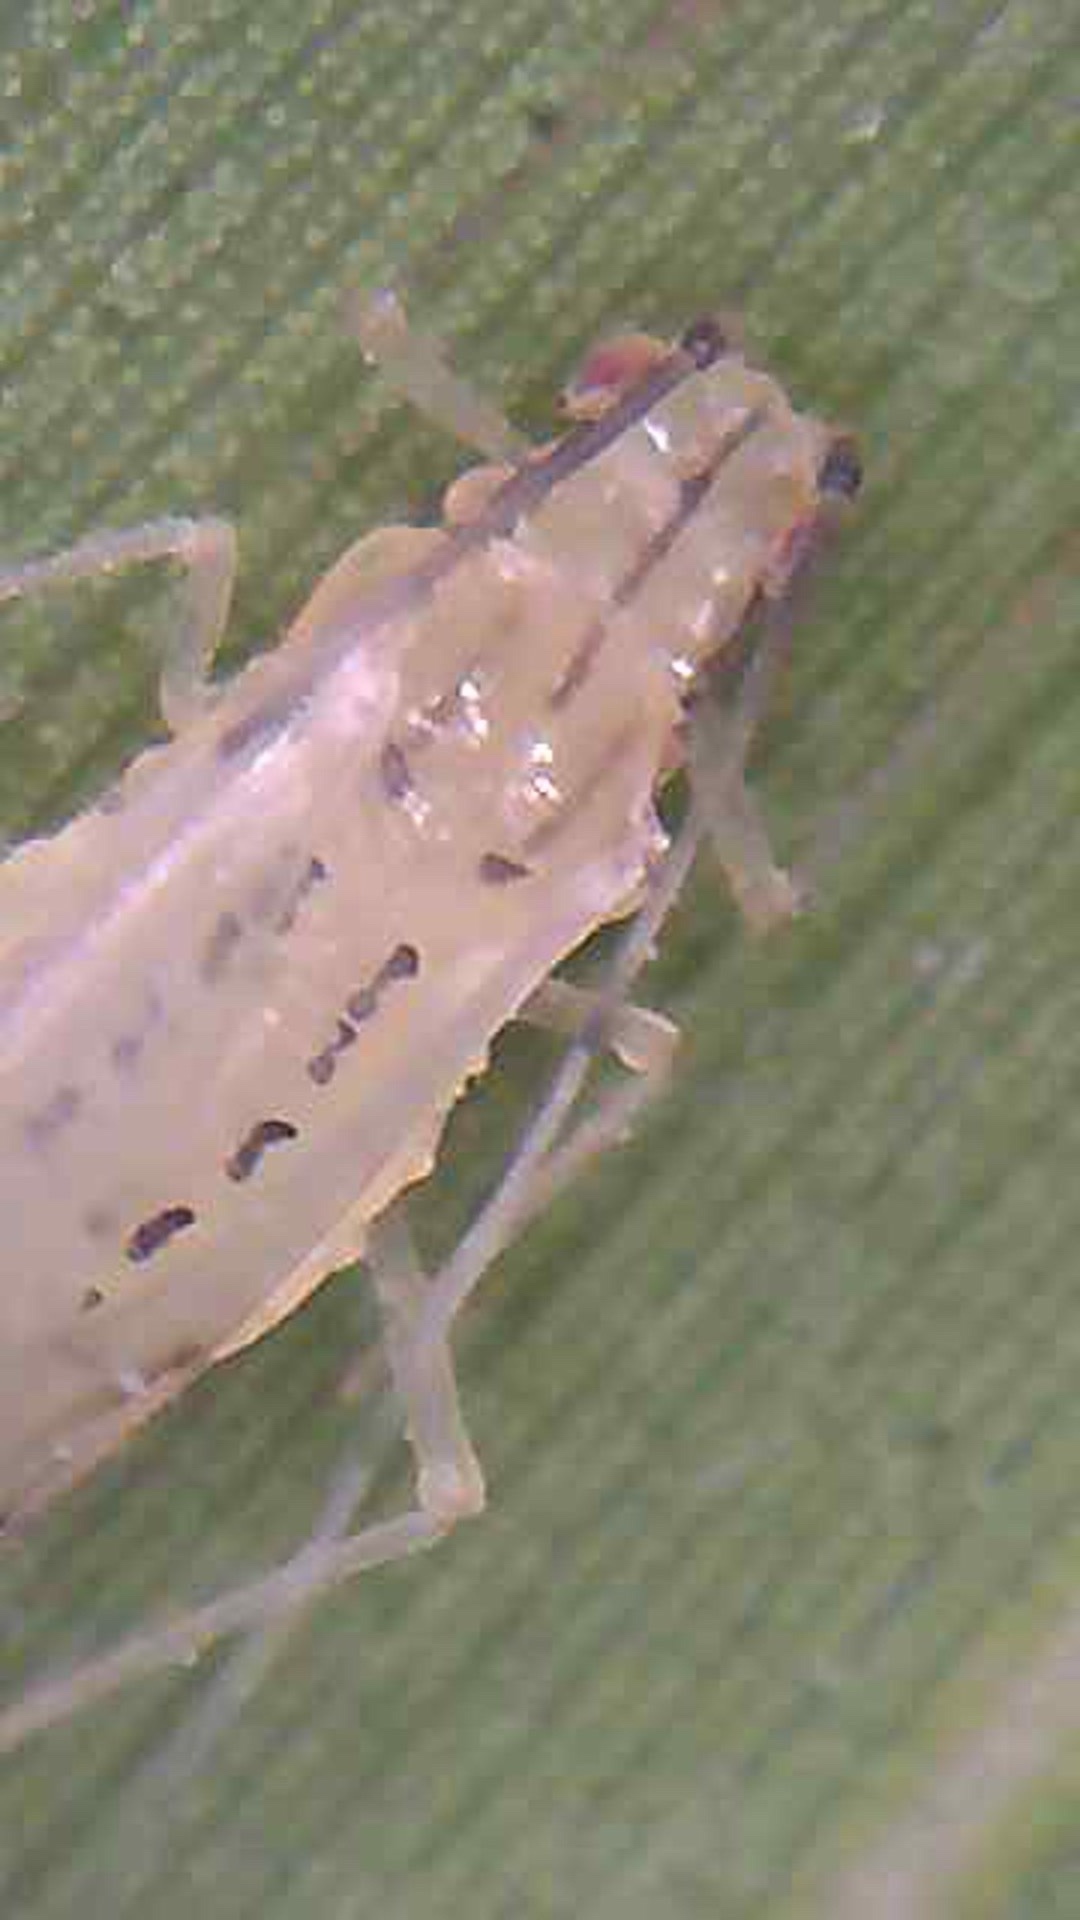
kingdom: Animalia
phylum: Arthropoda
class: Insecta
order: Hemiptera
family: Aphididae
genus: Takecallis
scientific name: Takecallis arundinariae
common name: Black-tailed bamboo aphid
